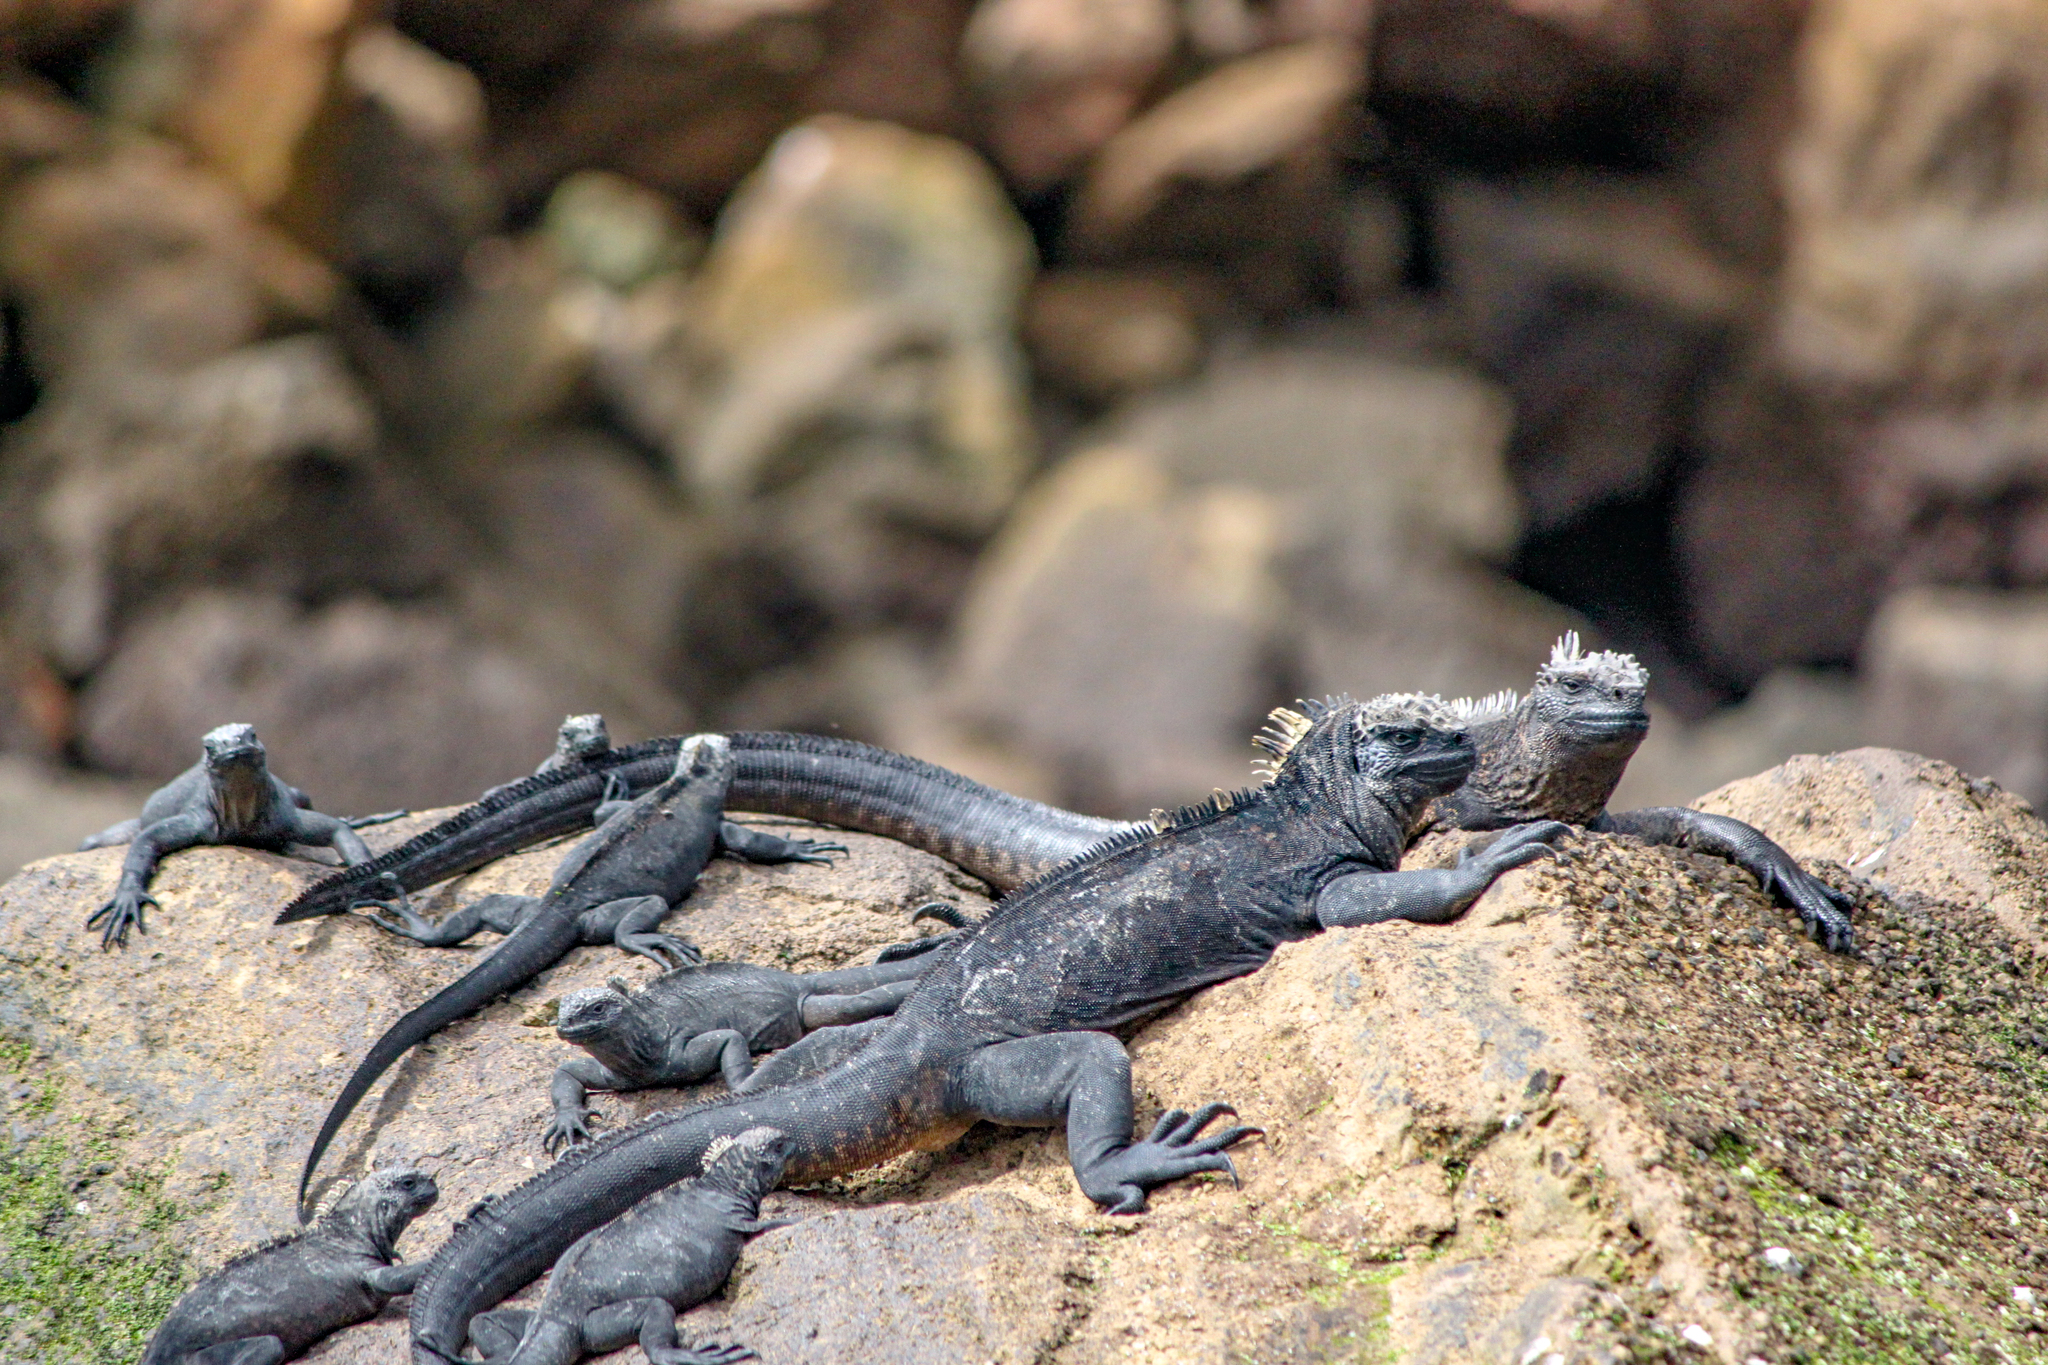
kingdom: Animalia
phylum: Chordata
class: Squamata
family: Iguanidae
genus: Amblyrhynchus
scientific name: Amblyrhynchus cristatus
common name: Marine iguana
